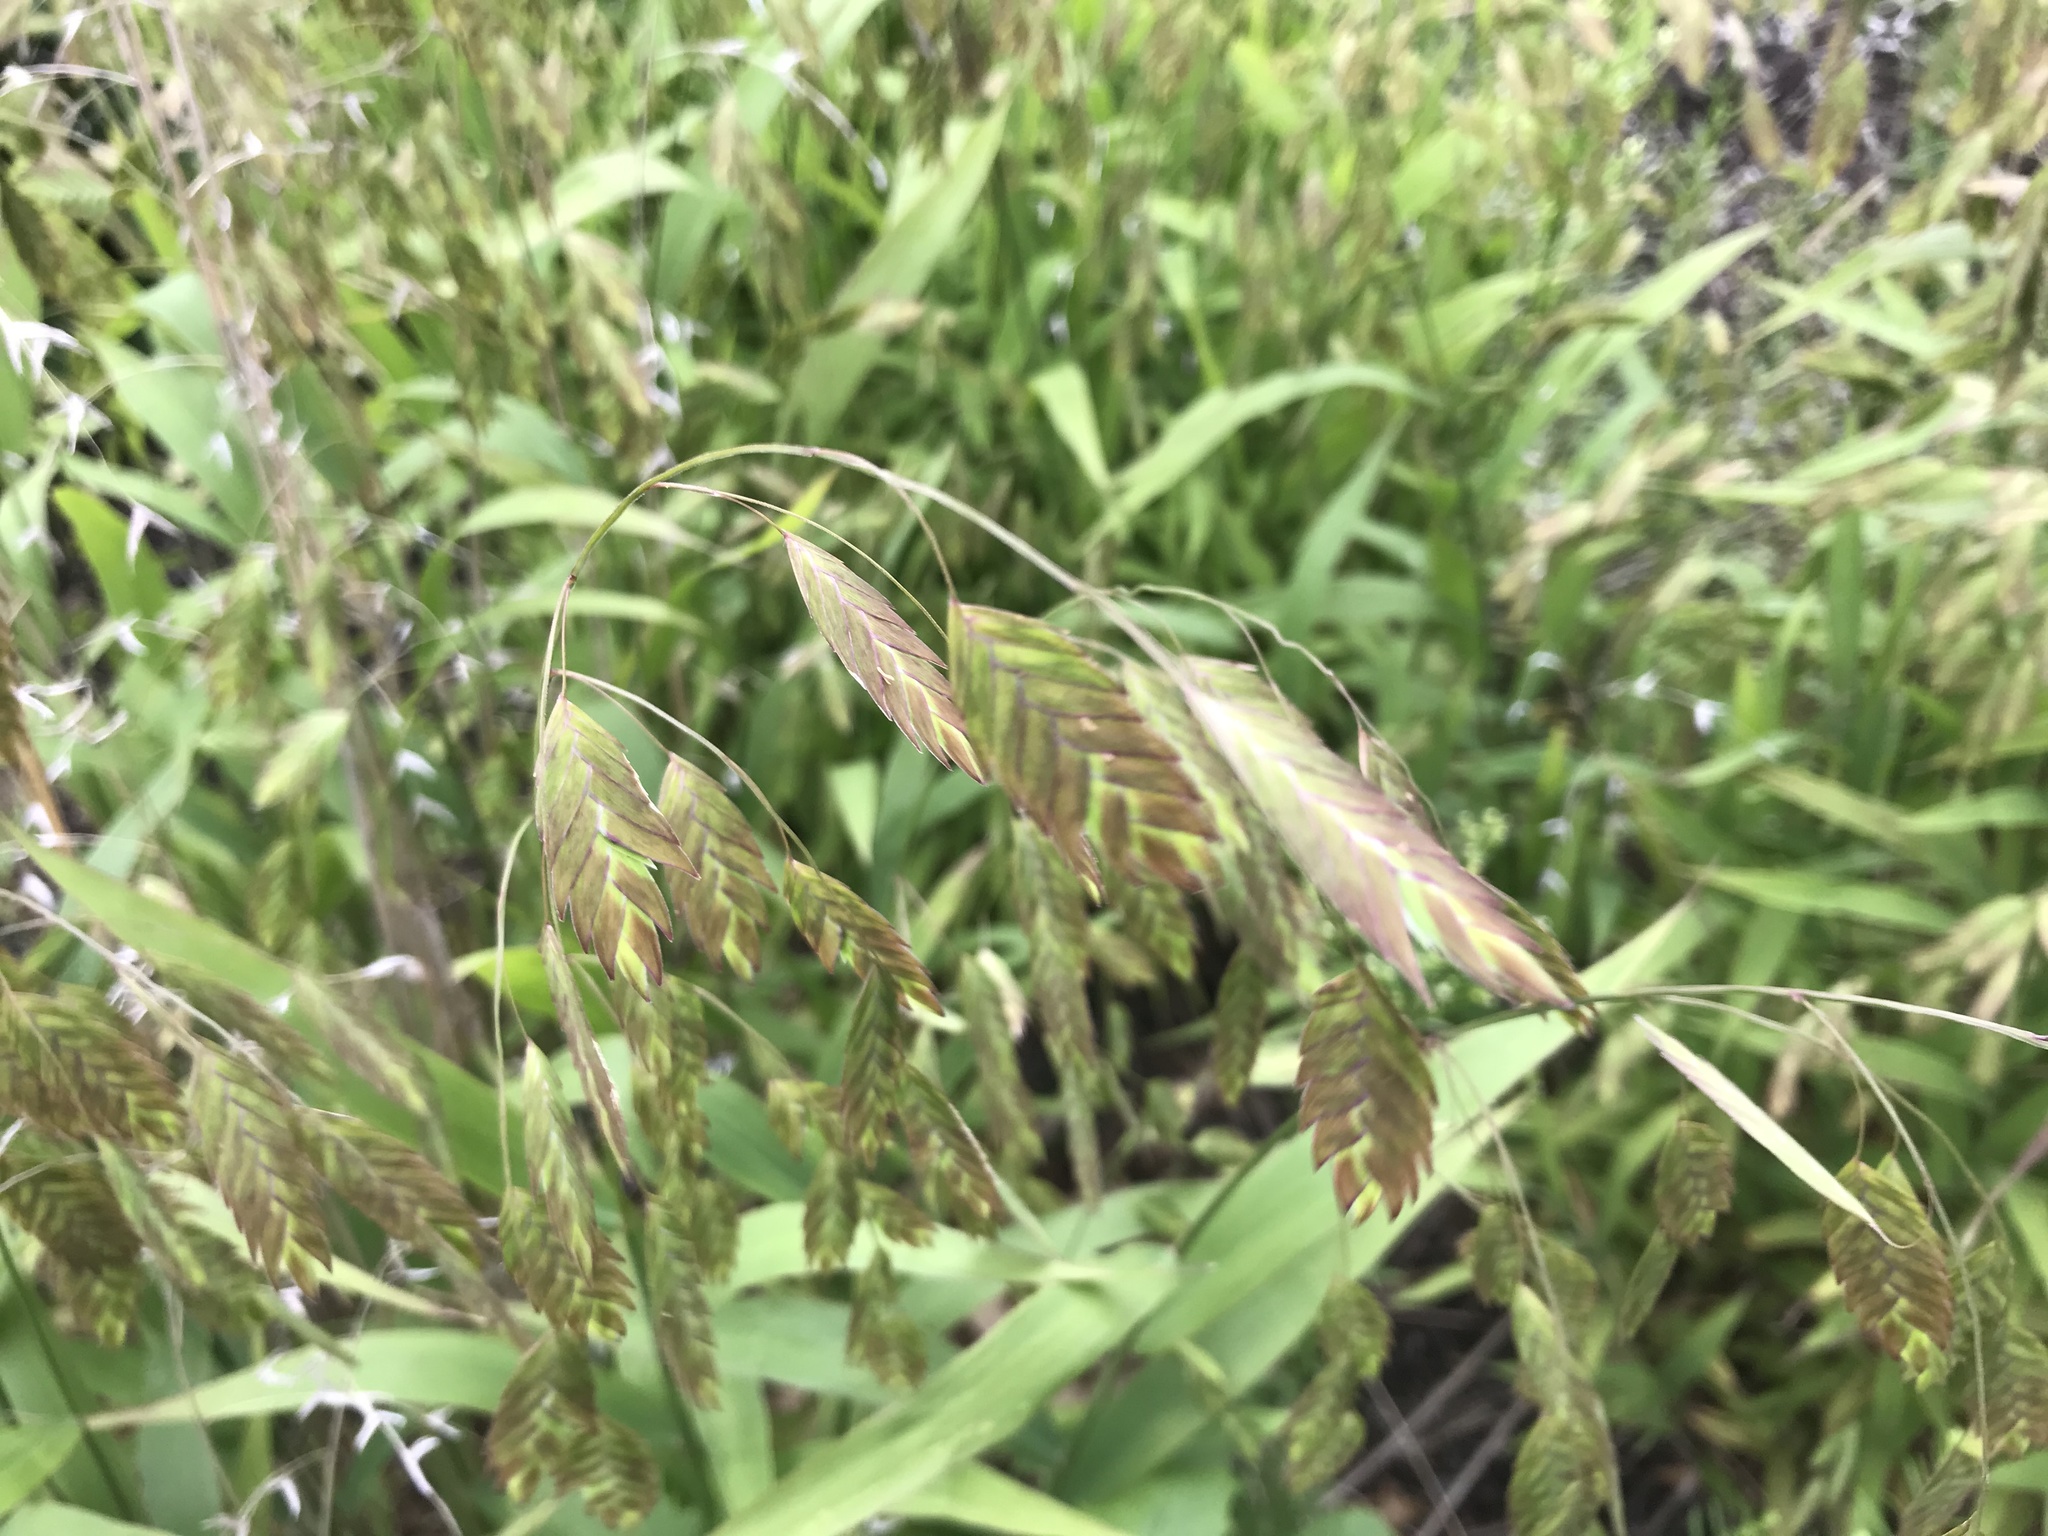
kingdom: Plantae
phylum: Tracheophyta
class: Liliopsida
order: Poales
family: Poaceae
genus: Chasmanthium
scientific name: Chasmanthium latifolium
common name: Broad-leaved chasmanthium
